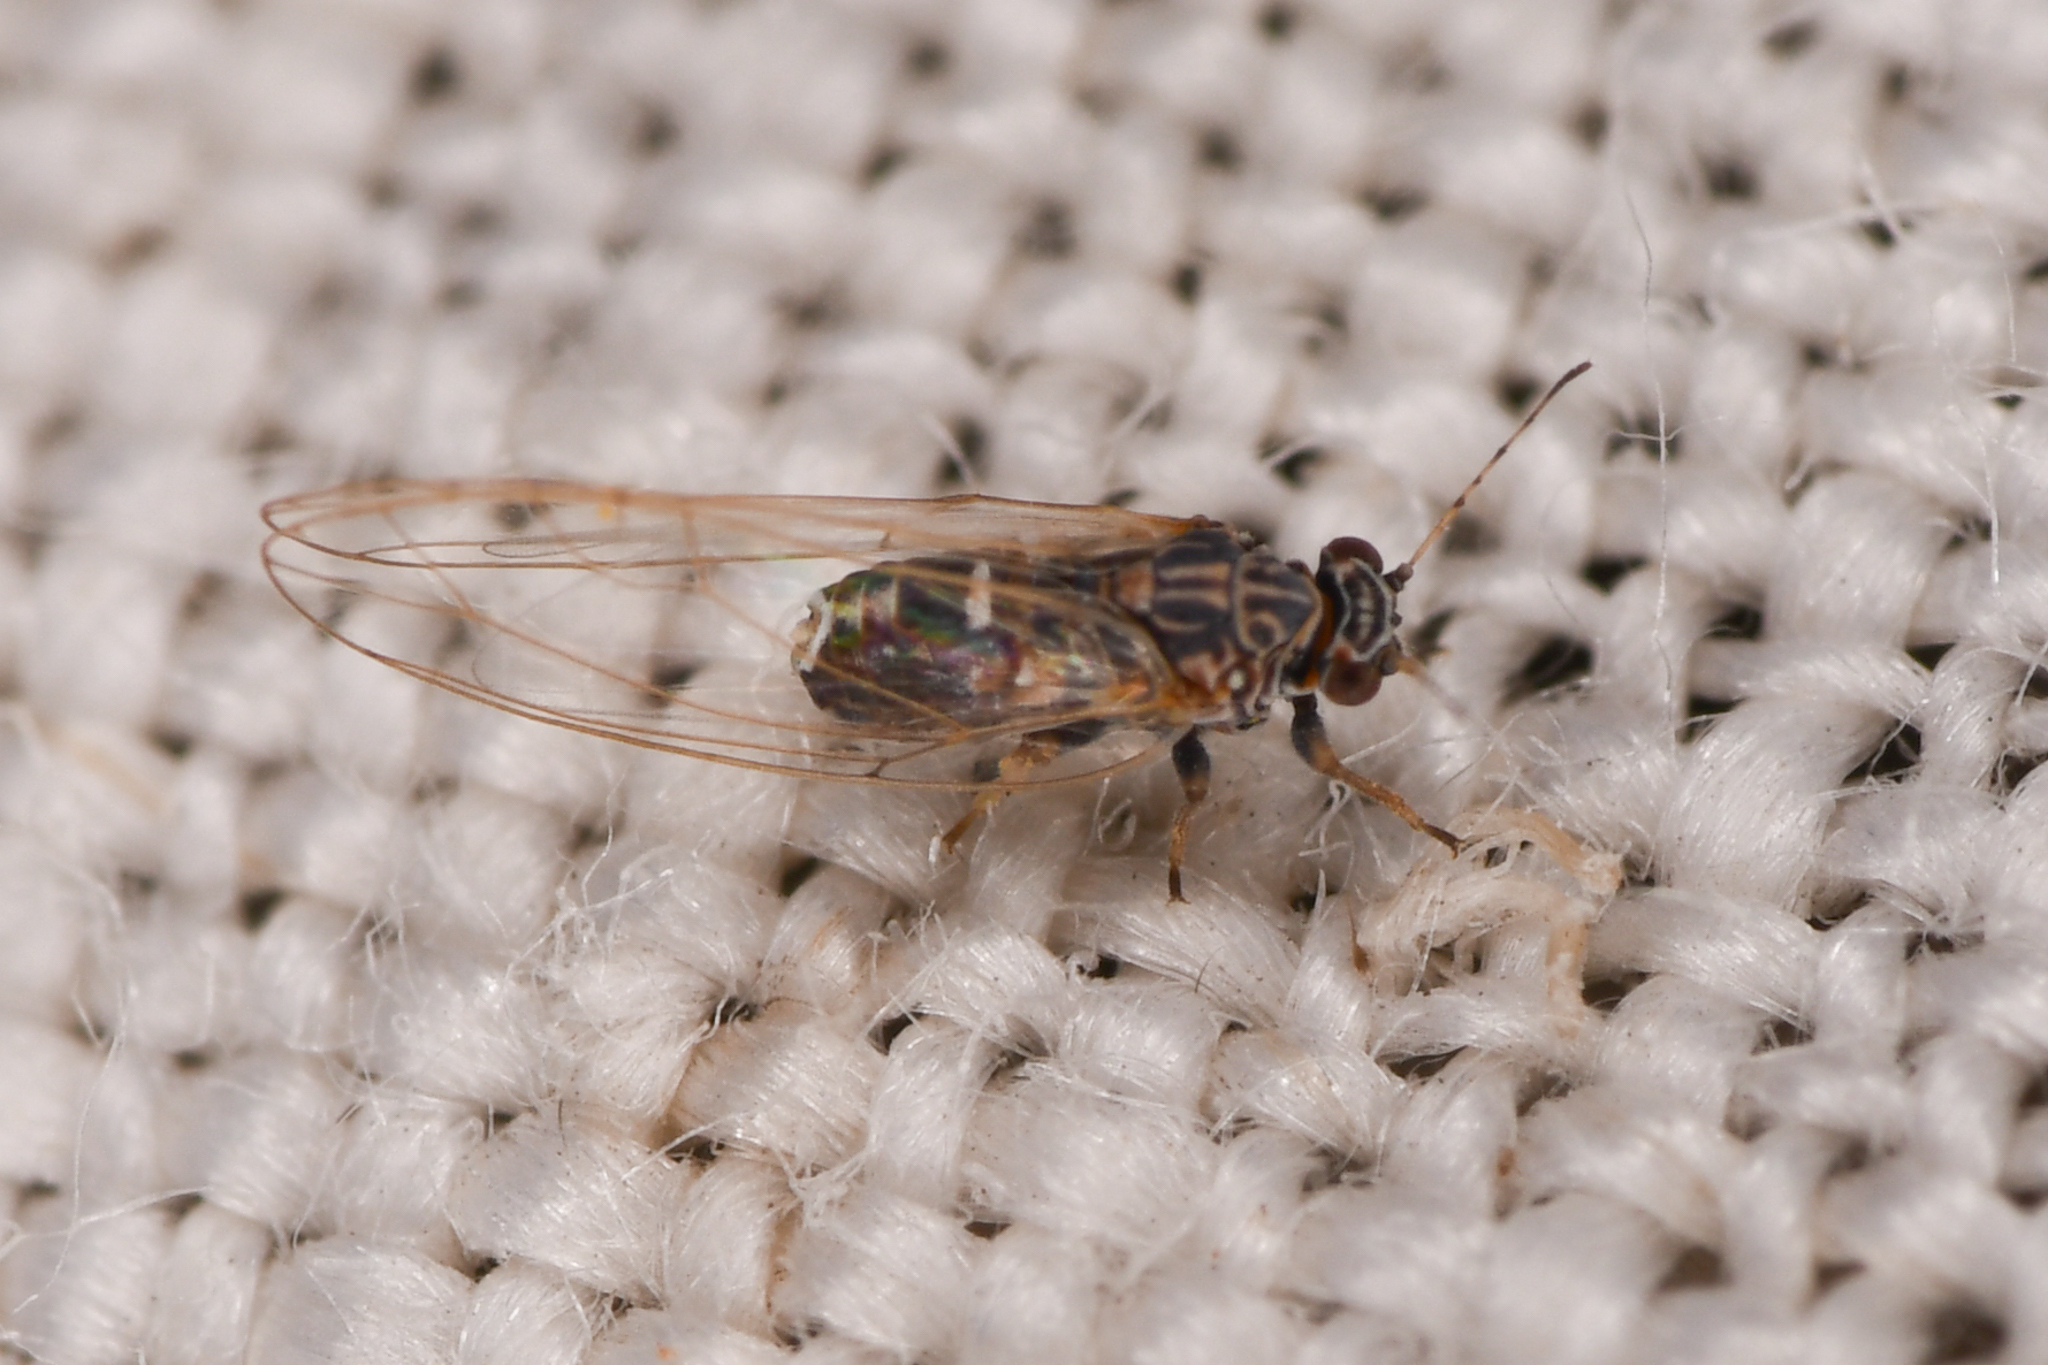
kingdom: Animalia
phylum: Arthropoda
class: Insecta
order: Hemiptera
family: Triozidae
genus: Bactericera
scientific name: Bactericera cockerelli
